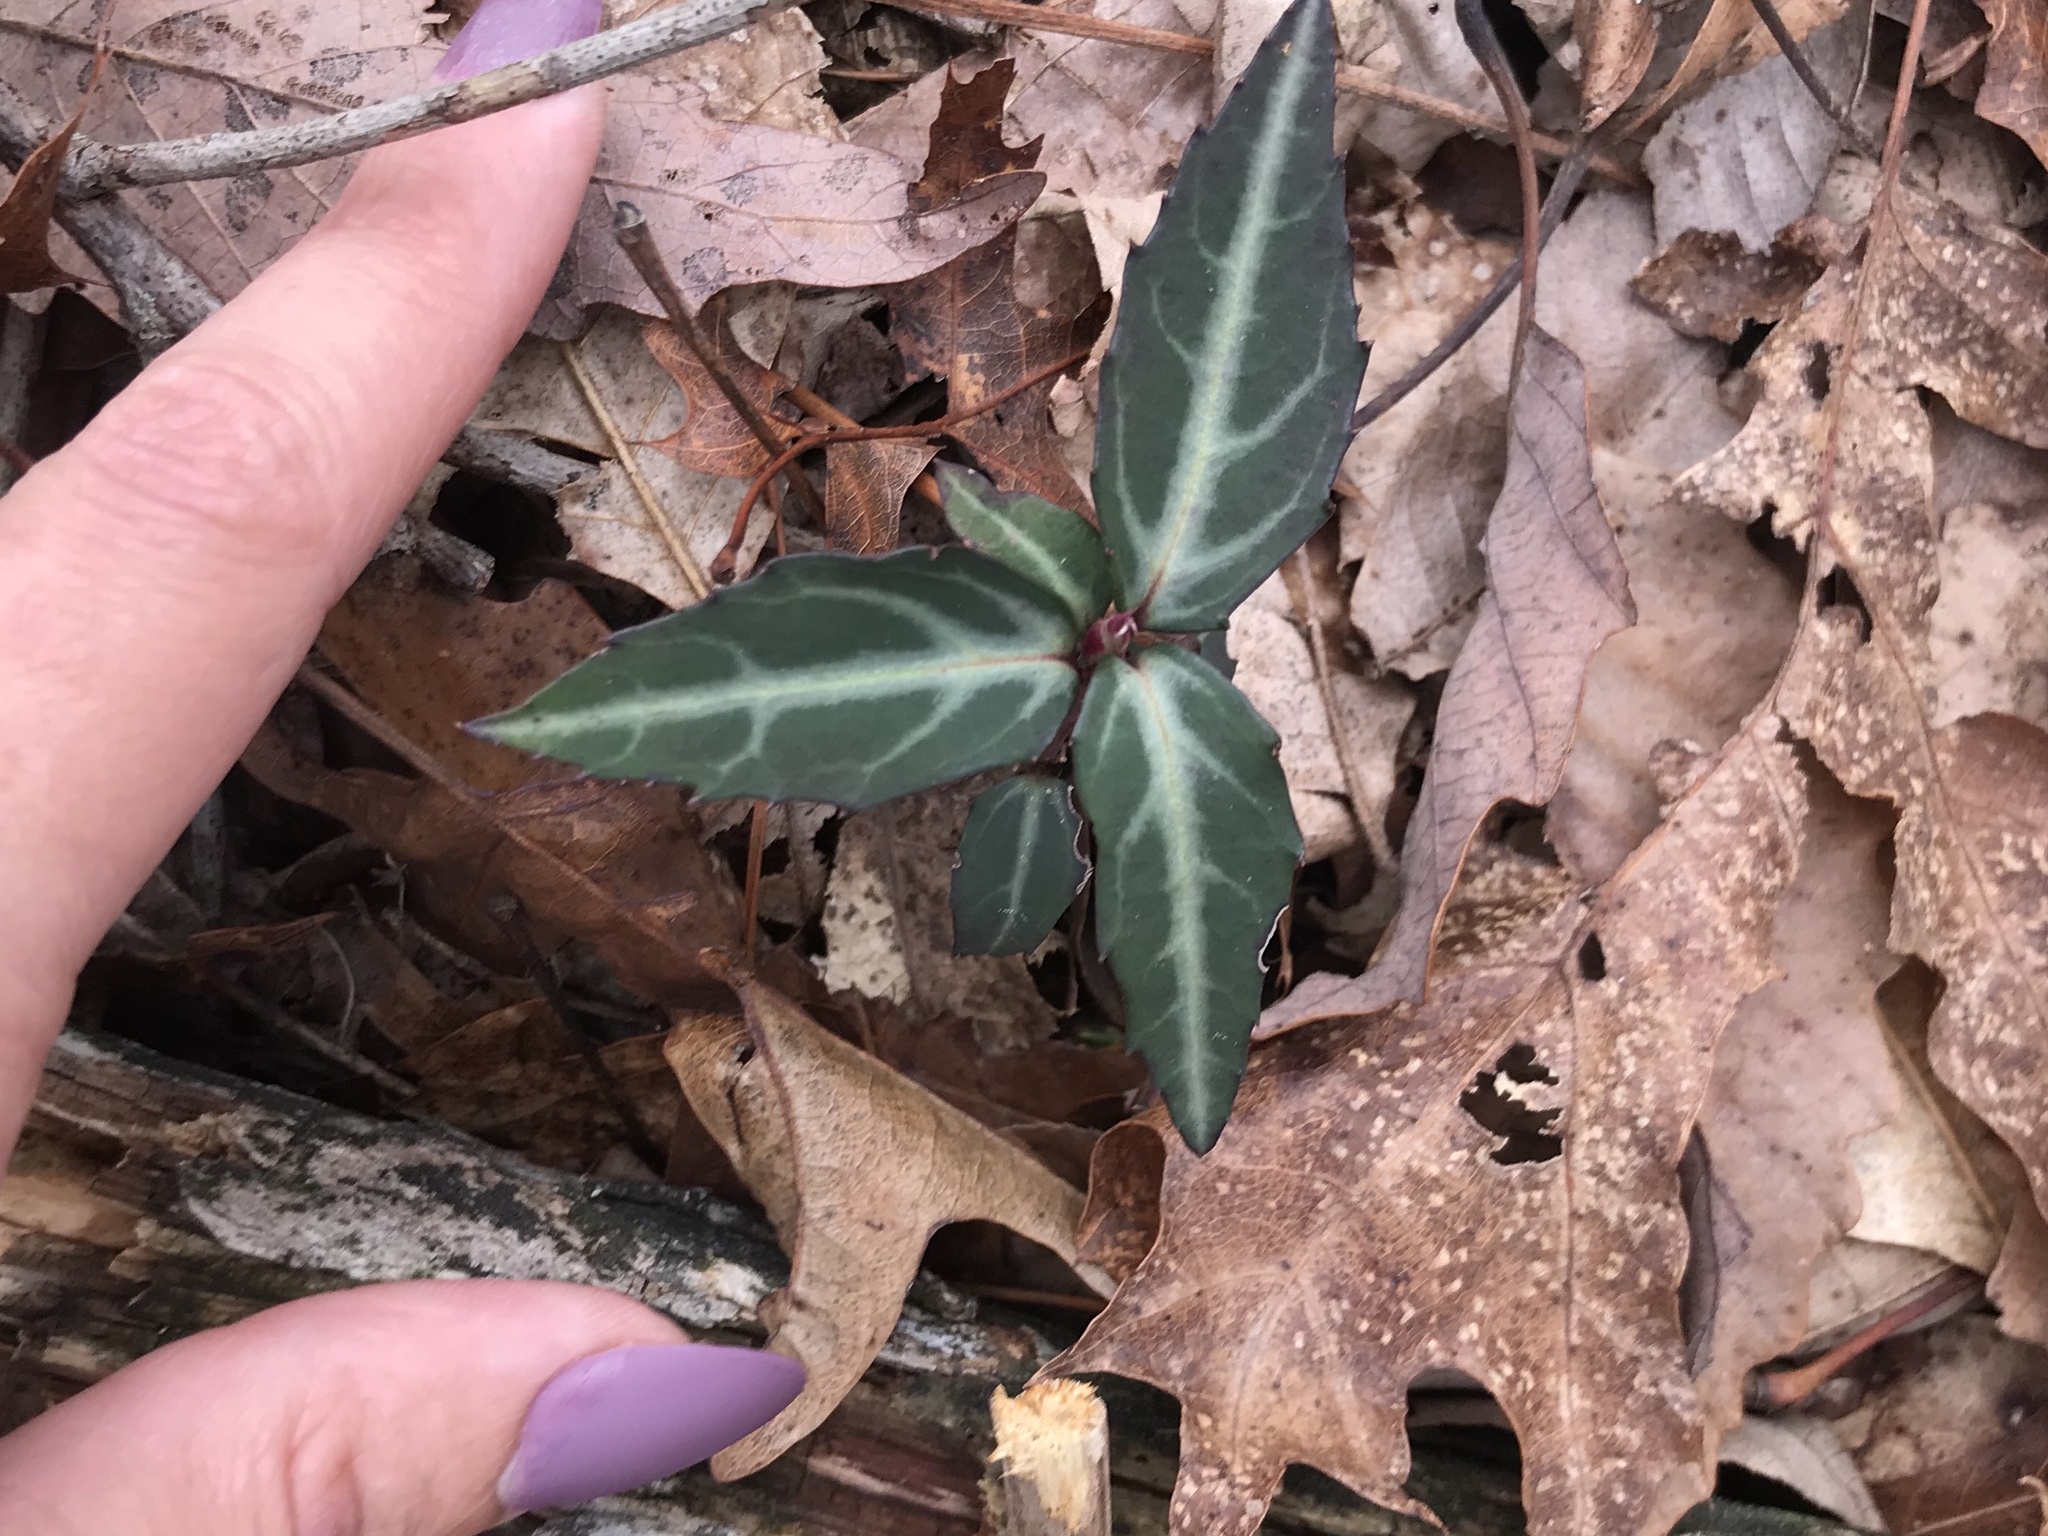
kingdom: Plantae
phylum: Tracheophyta
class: Magnoliopsida
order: Ericales
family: Ericaceae
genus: Chimaphila
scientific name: Chimaphila maculata
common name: Spotted pipsissewa
